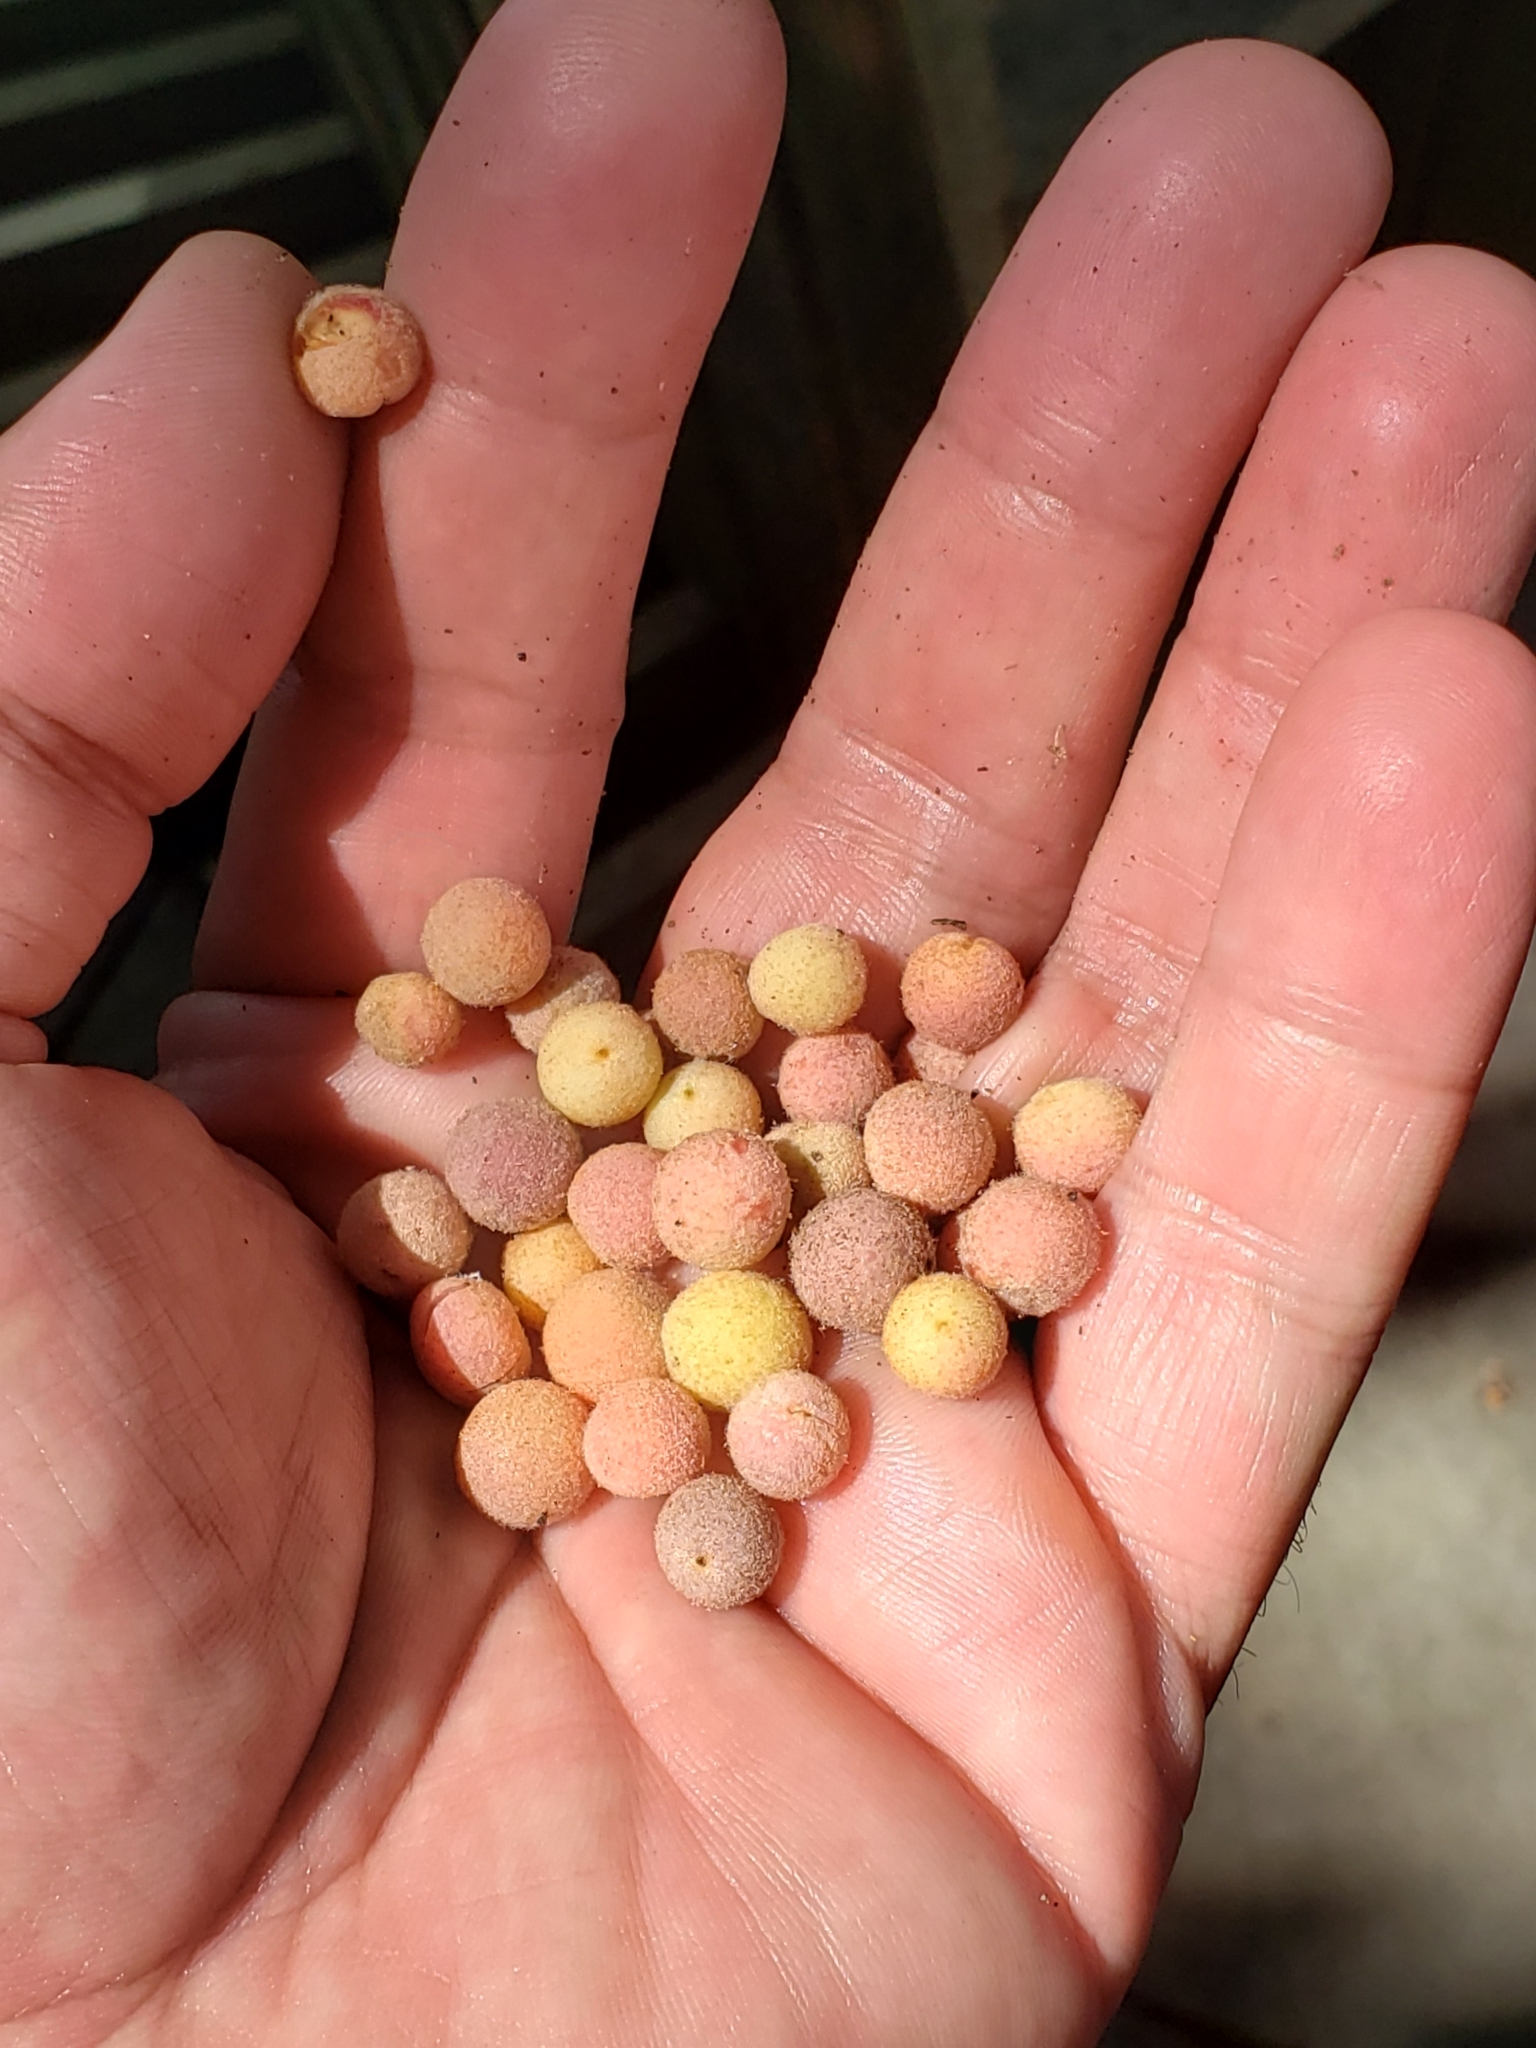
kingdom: Animalia
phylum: Arthropoda
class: Insecta
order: Hymenoptera
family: Cynipidae
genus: Philonix
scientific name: Philonix fulvicollis
